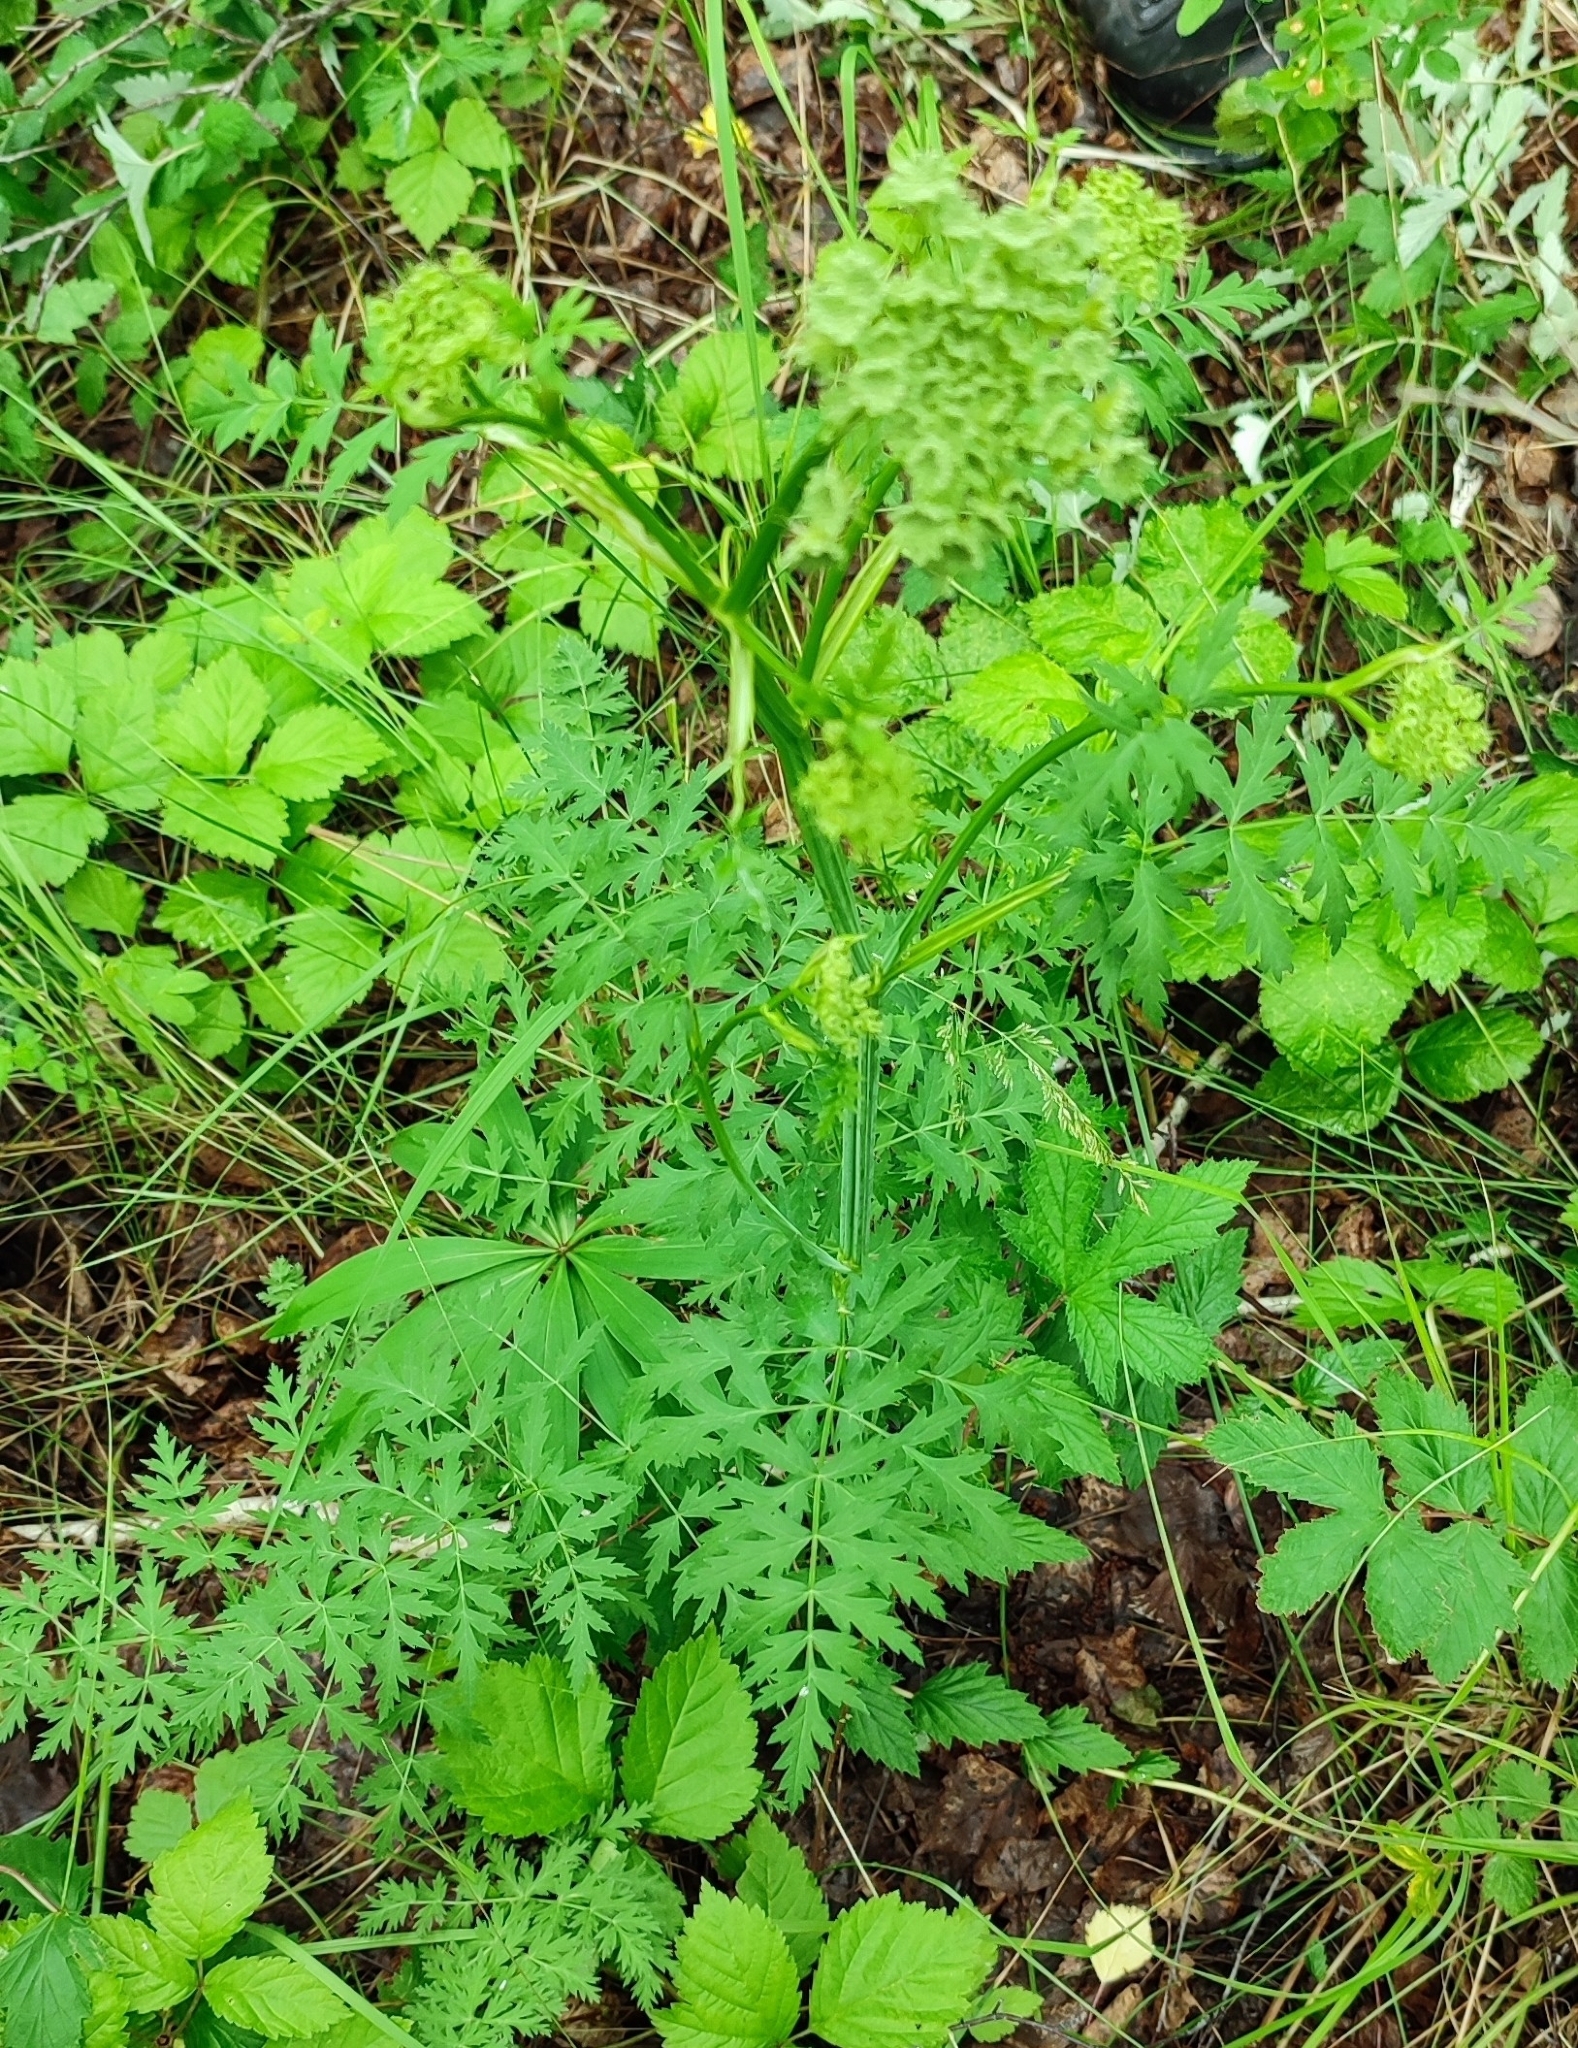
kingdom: Plantae
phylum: Tracheophyta
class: Magnoliopsida
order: Apiales
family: Apiaceae
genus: Seseli
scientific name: Seseli libanotis
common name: Mooncarrot
